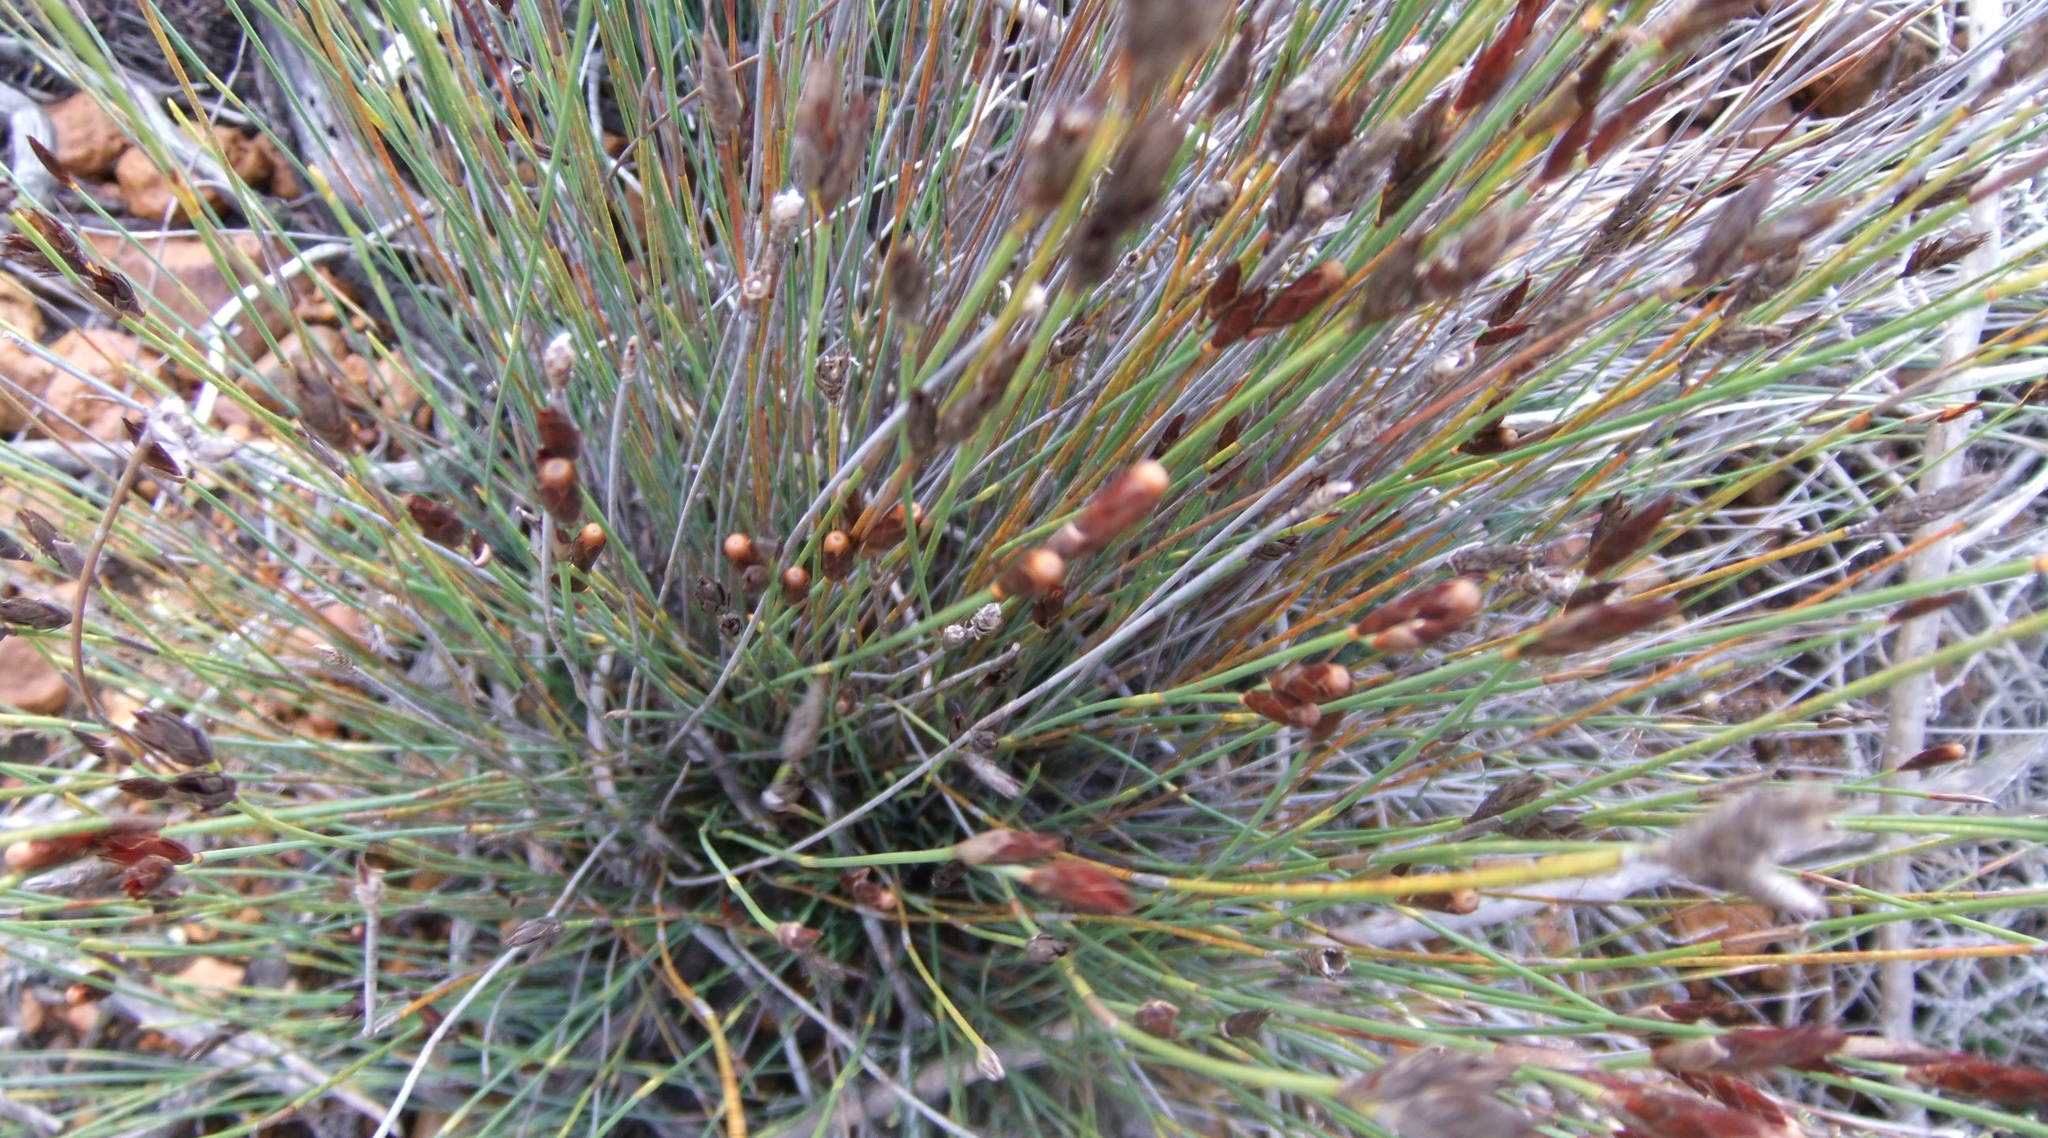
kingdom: Plantae
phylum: Tracheophyta
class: Liliopsida
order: Poales
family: Restionaceae
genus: Hypodiscus
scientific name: Hypodiscus striatus
